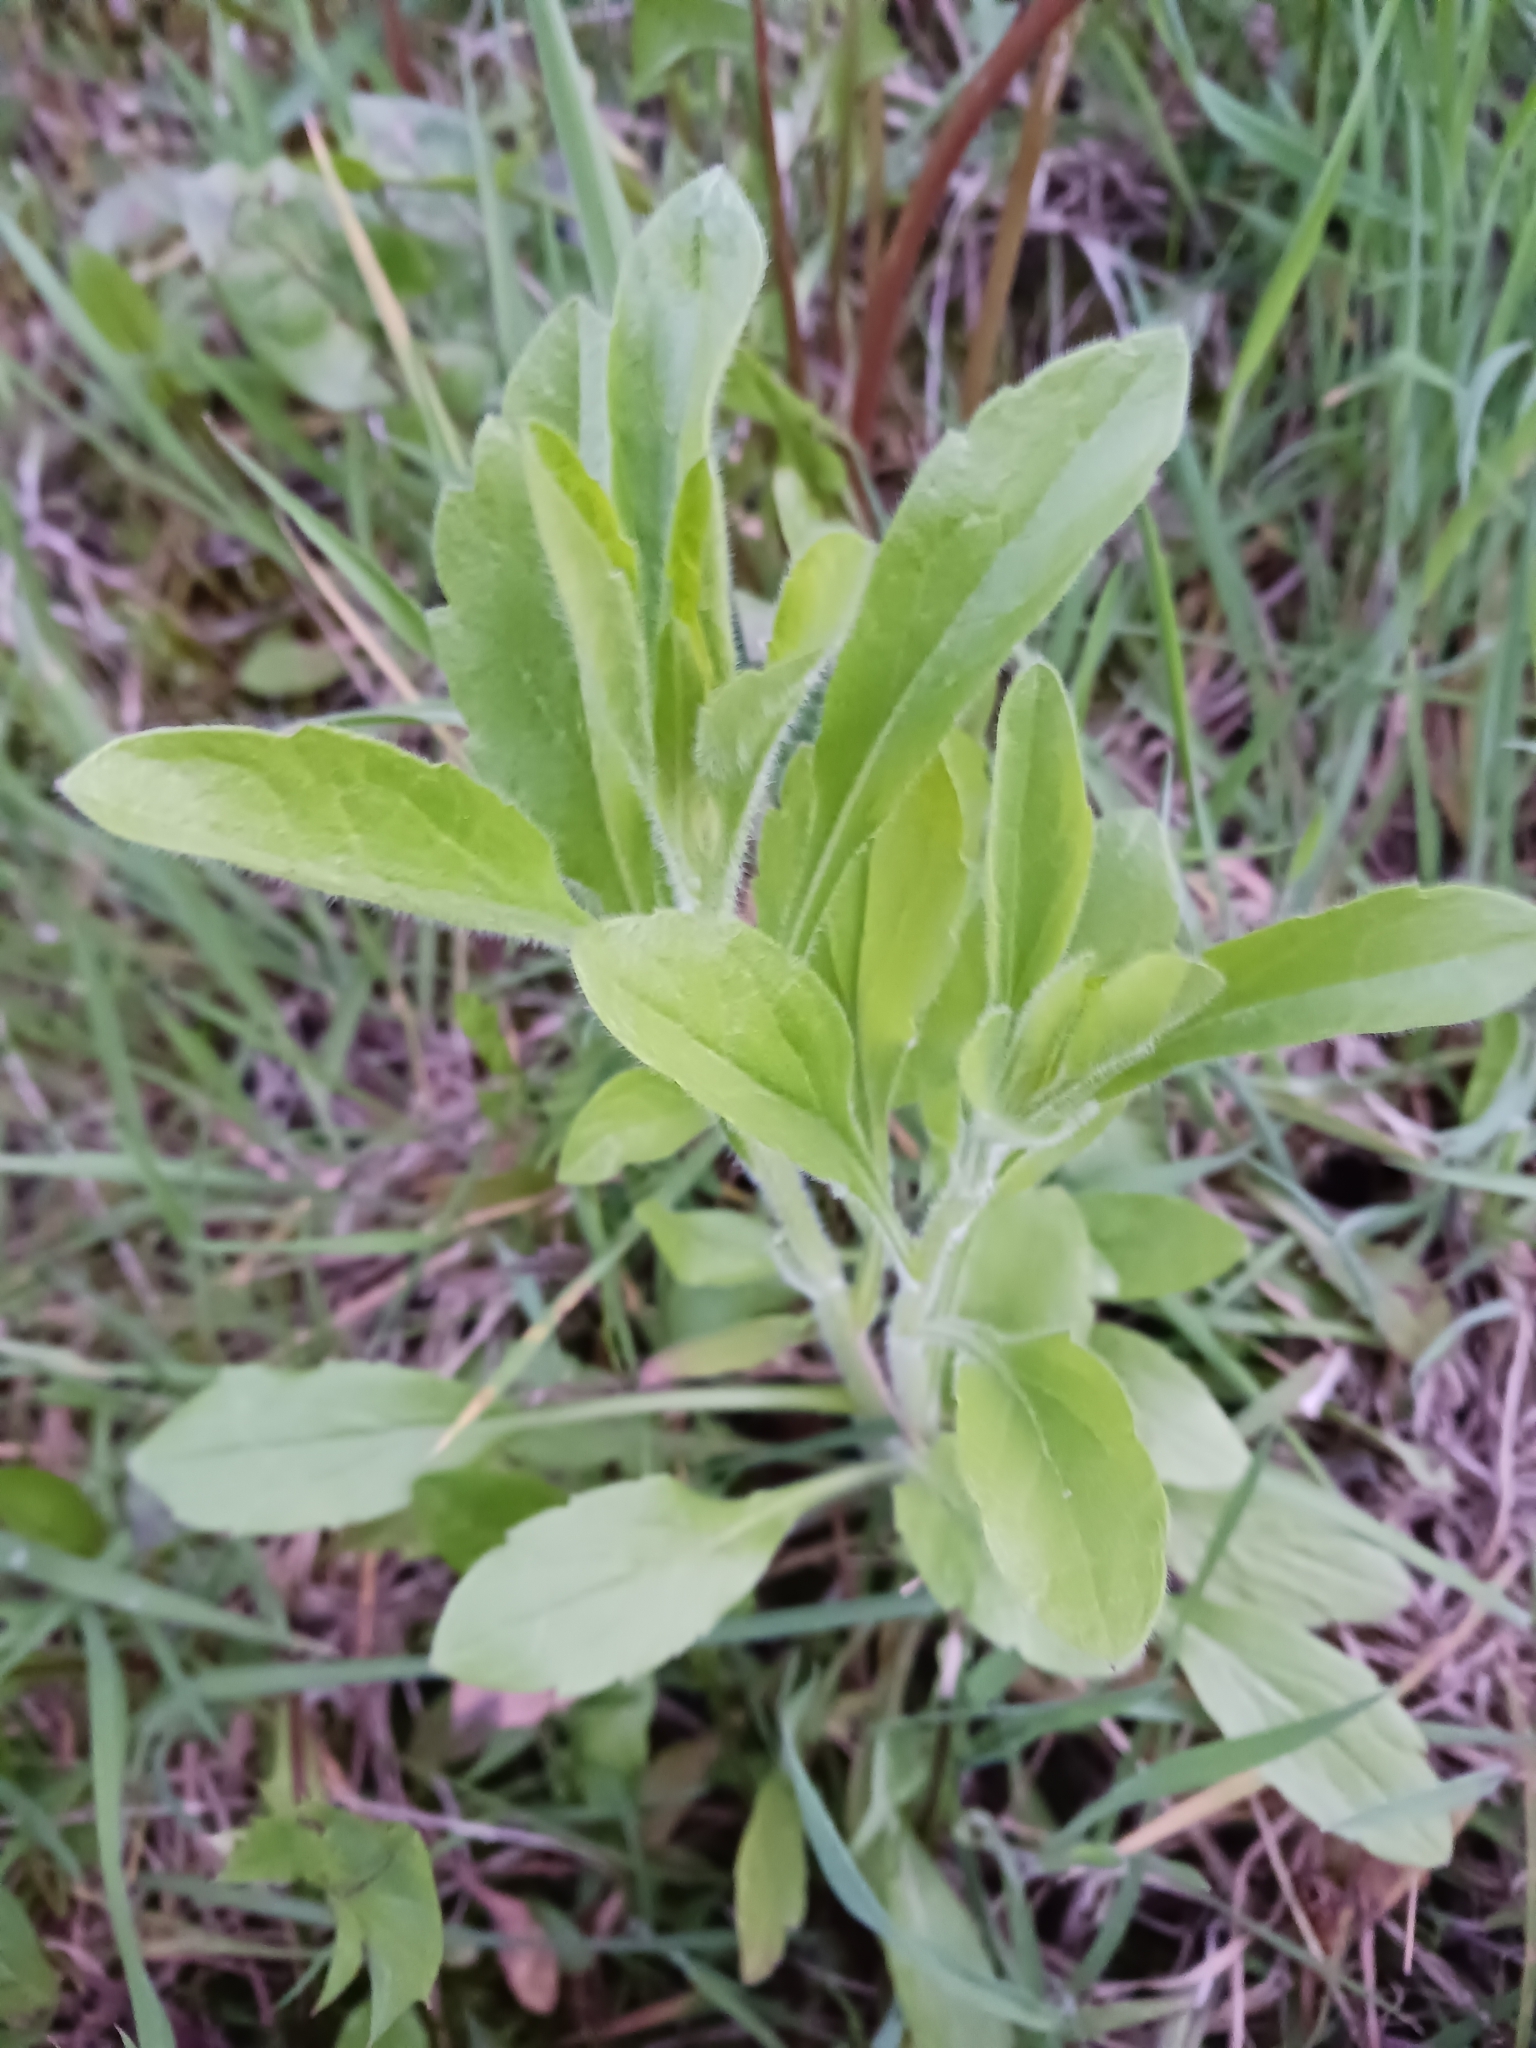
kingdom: Plantae
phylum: Tracheophyta
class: Magnoliopsida
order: Asterales
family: Asteraceae
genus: Erigeron
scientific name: Erigeron annuus
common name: Tall fleabane
